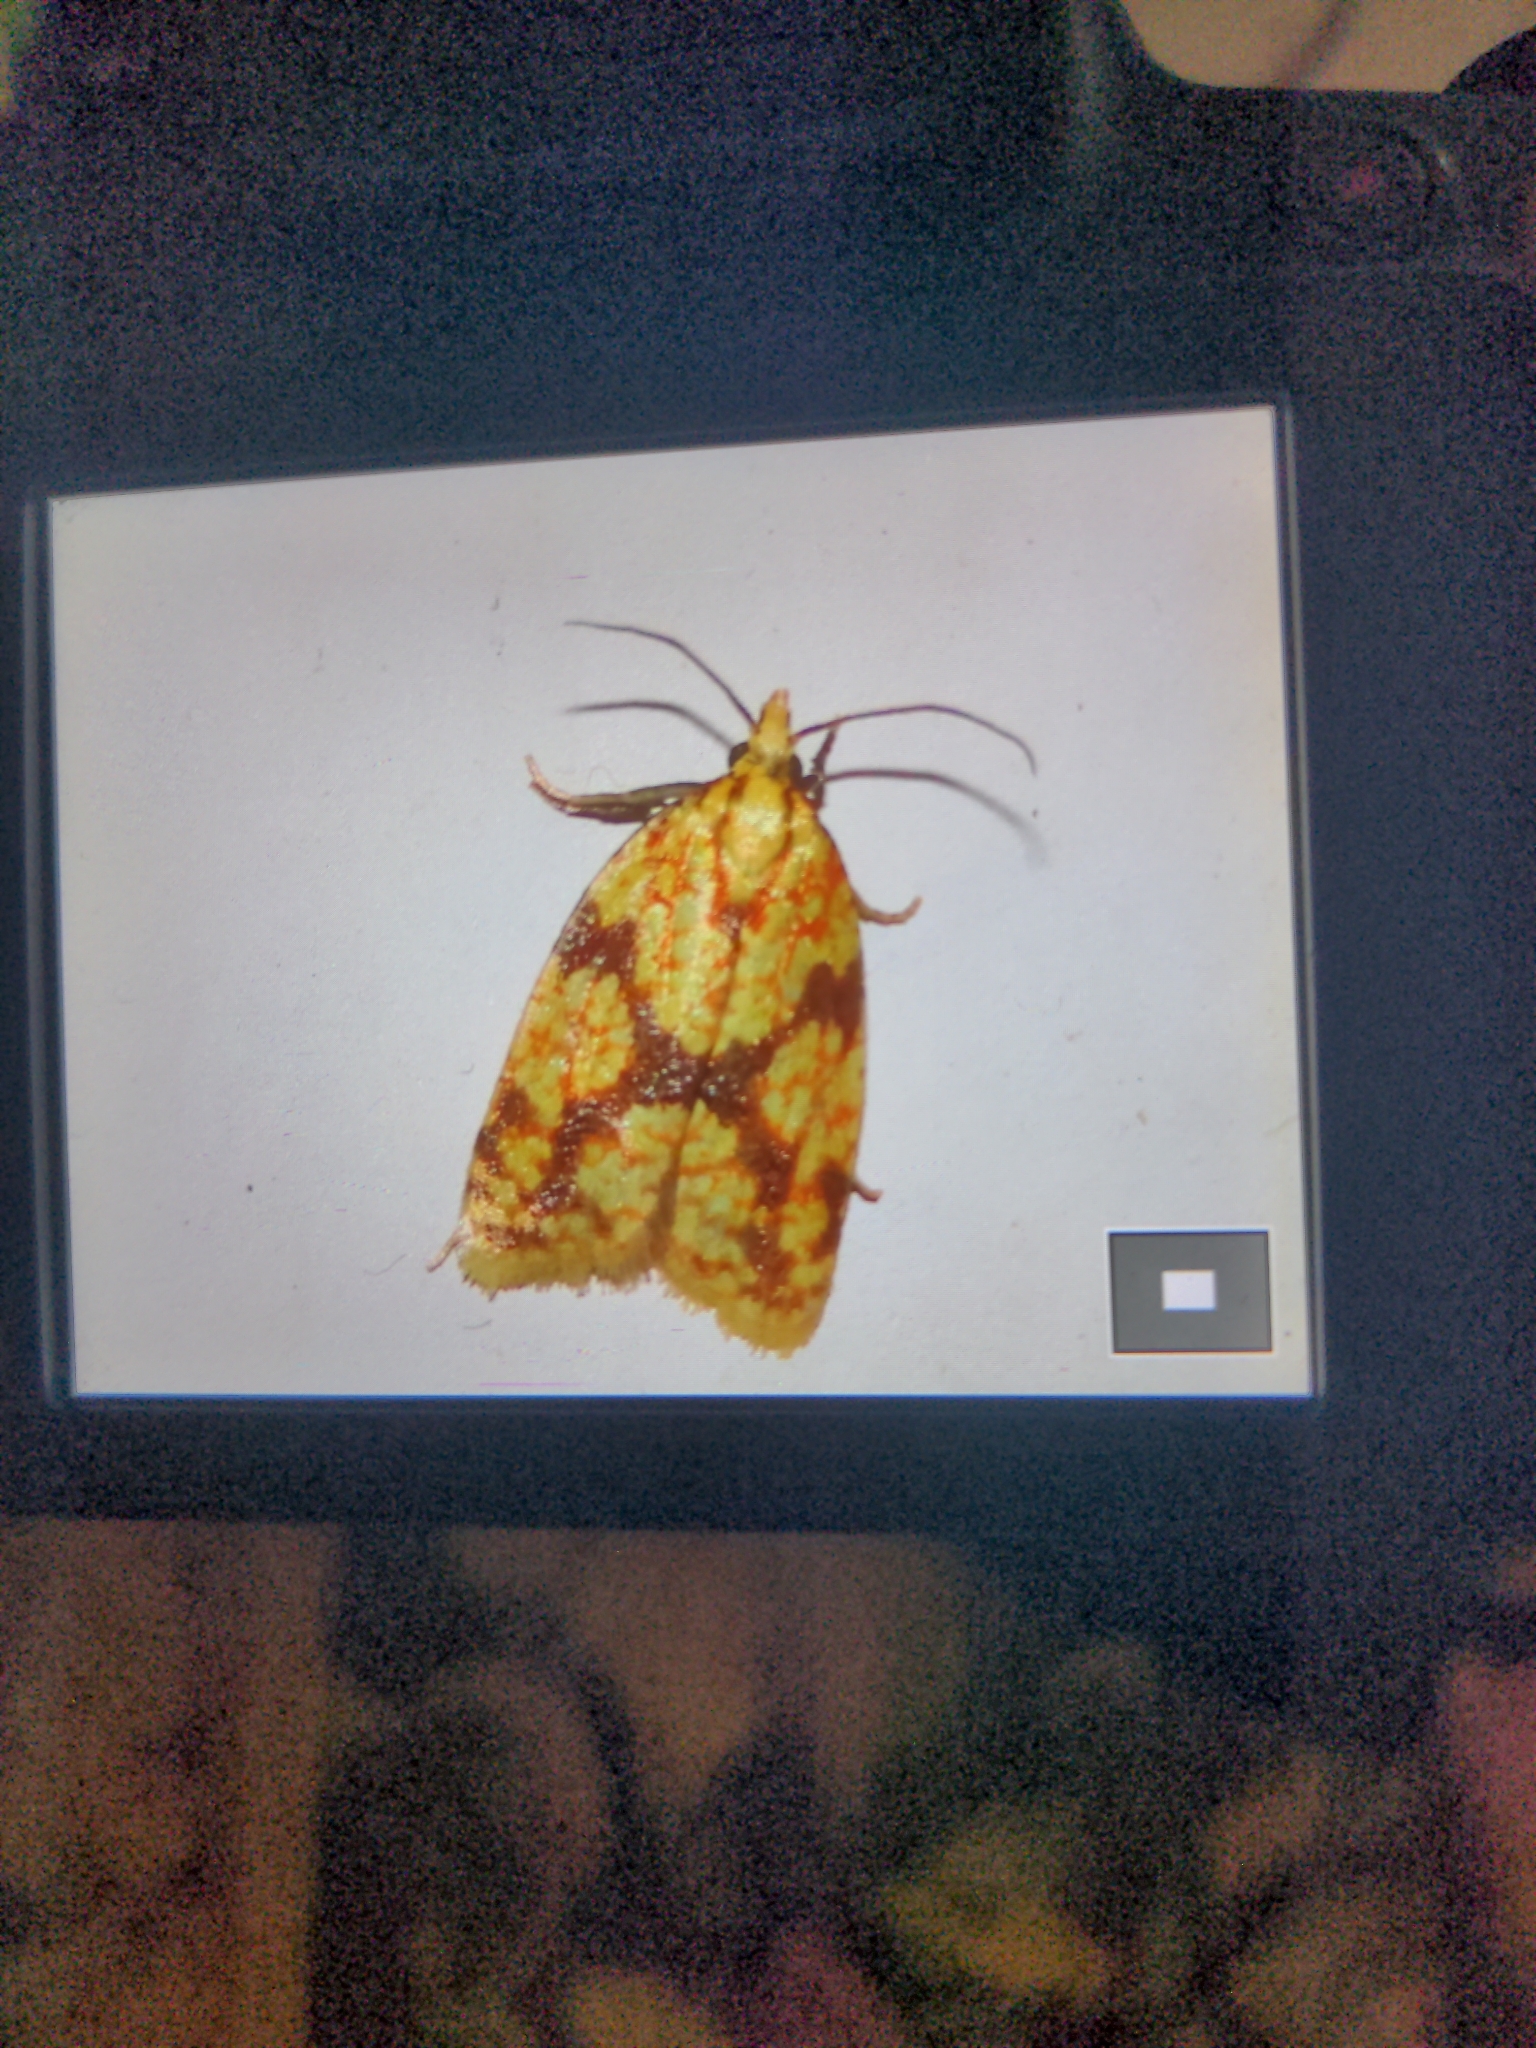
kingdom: Animalia
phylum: Arthropoda
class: Insecta
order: Lepidoptera
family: Tortricidae
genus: Sparganothis
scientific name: Sparganothis sulfureana
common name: Sparganothis fruitworm moth
